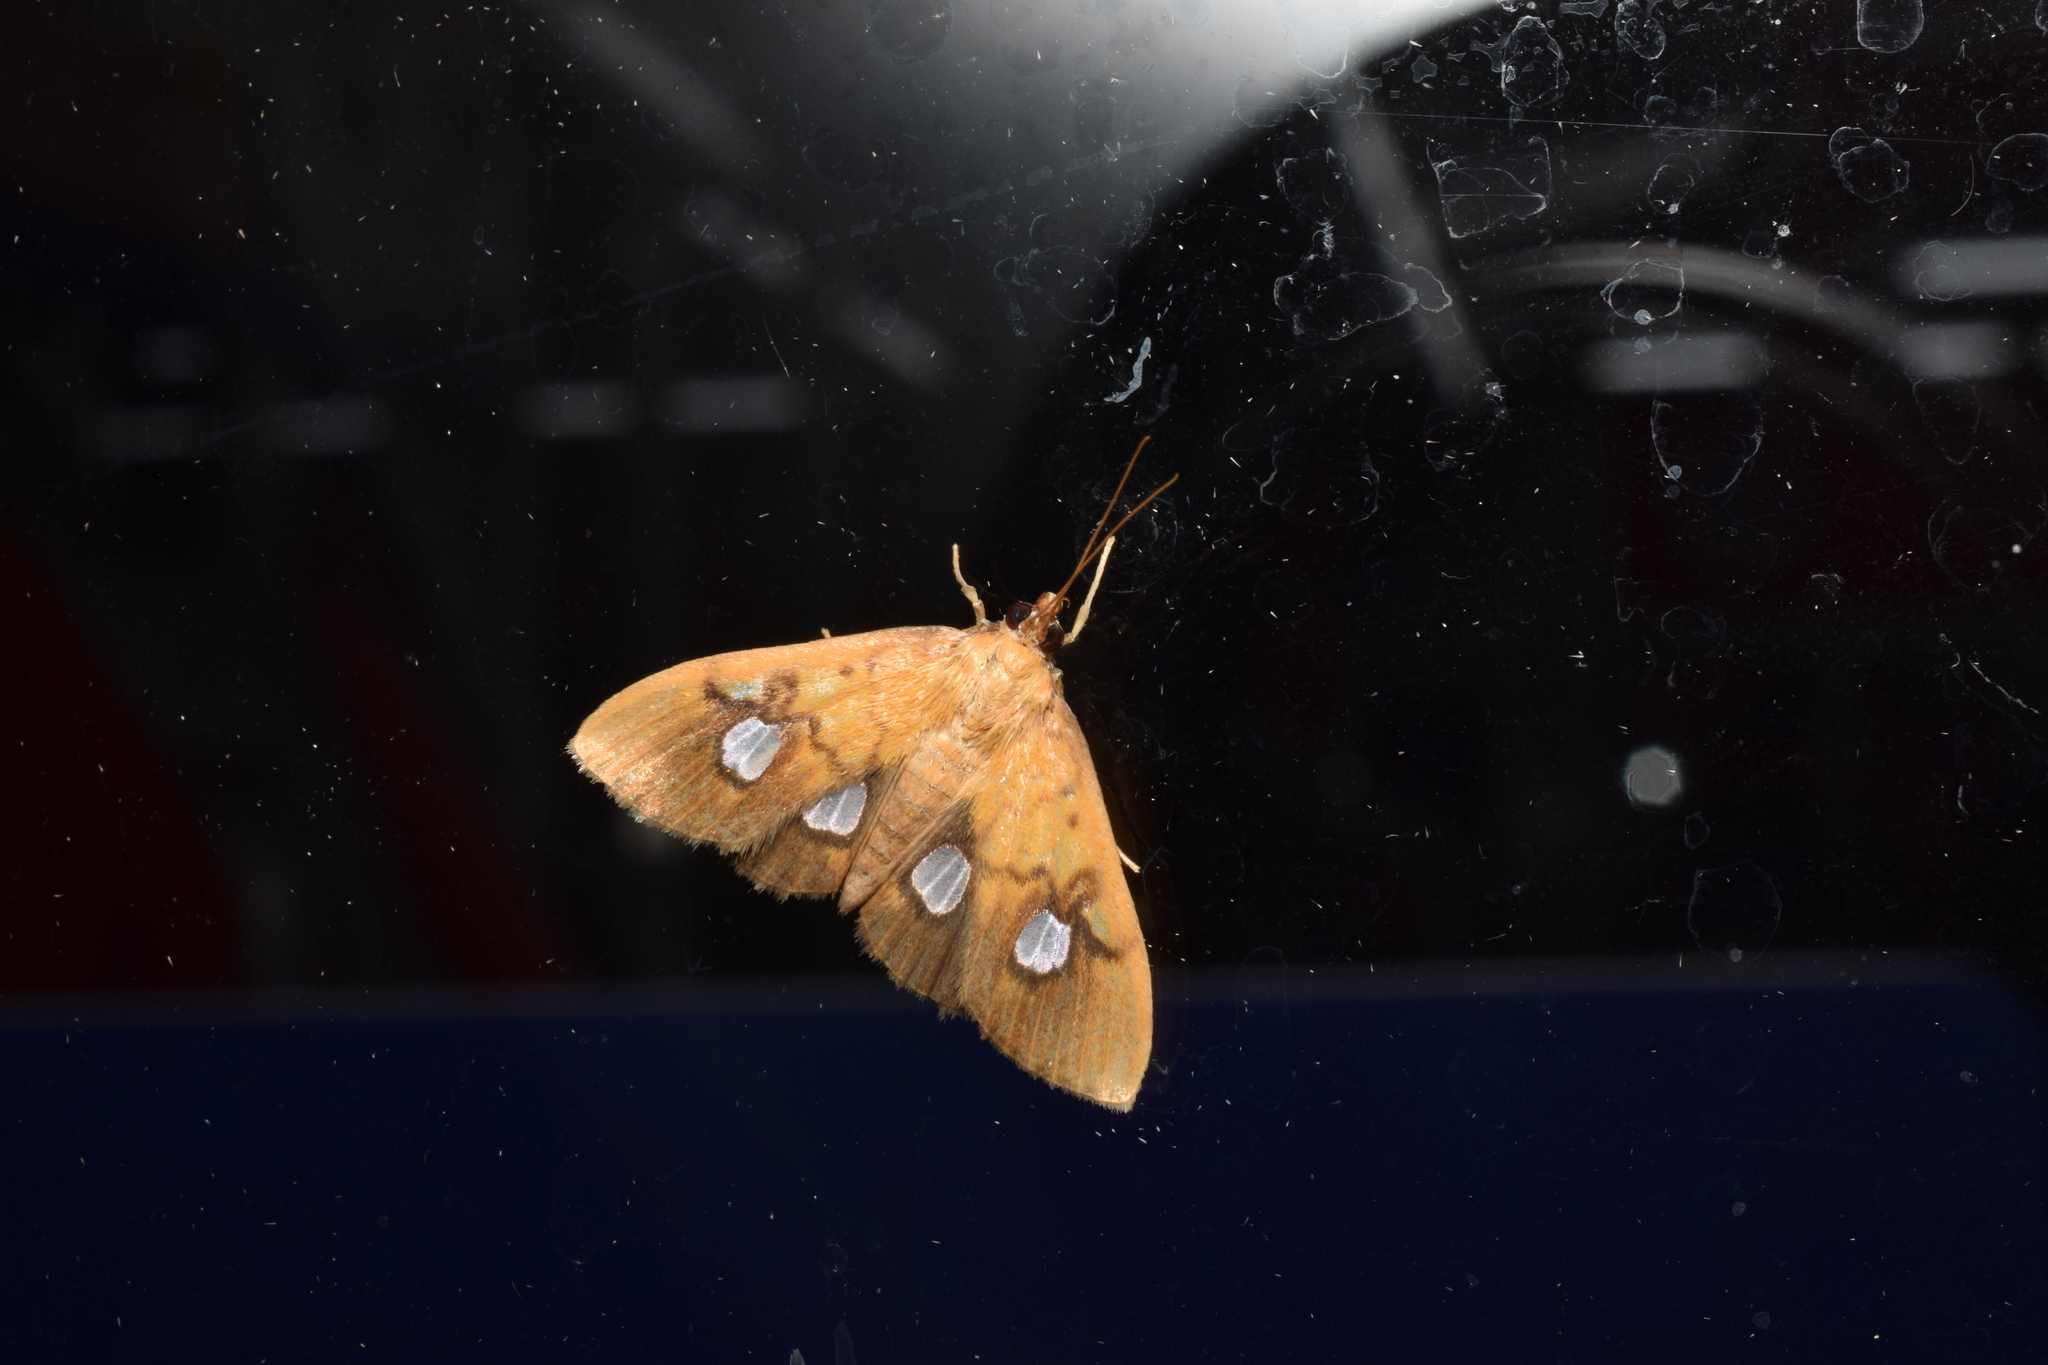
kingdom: Animalia
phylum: Arthropoda
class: Insecta
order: Lepidoptera
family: Crambidae
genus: Nosophora
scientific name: Nosophora semitritalis
